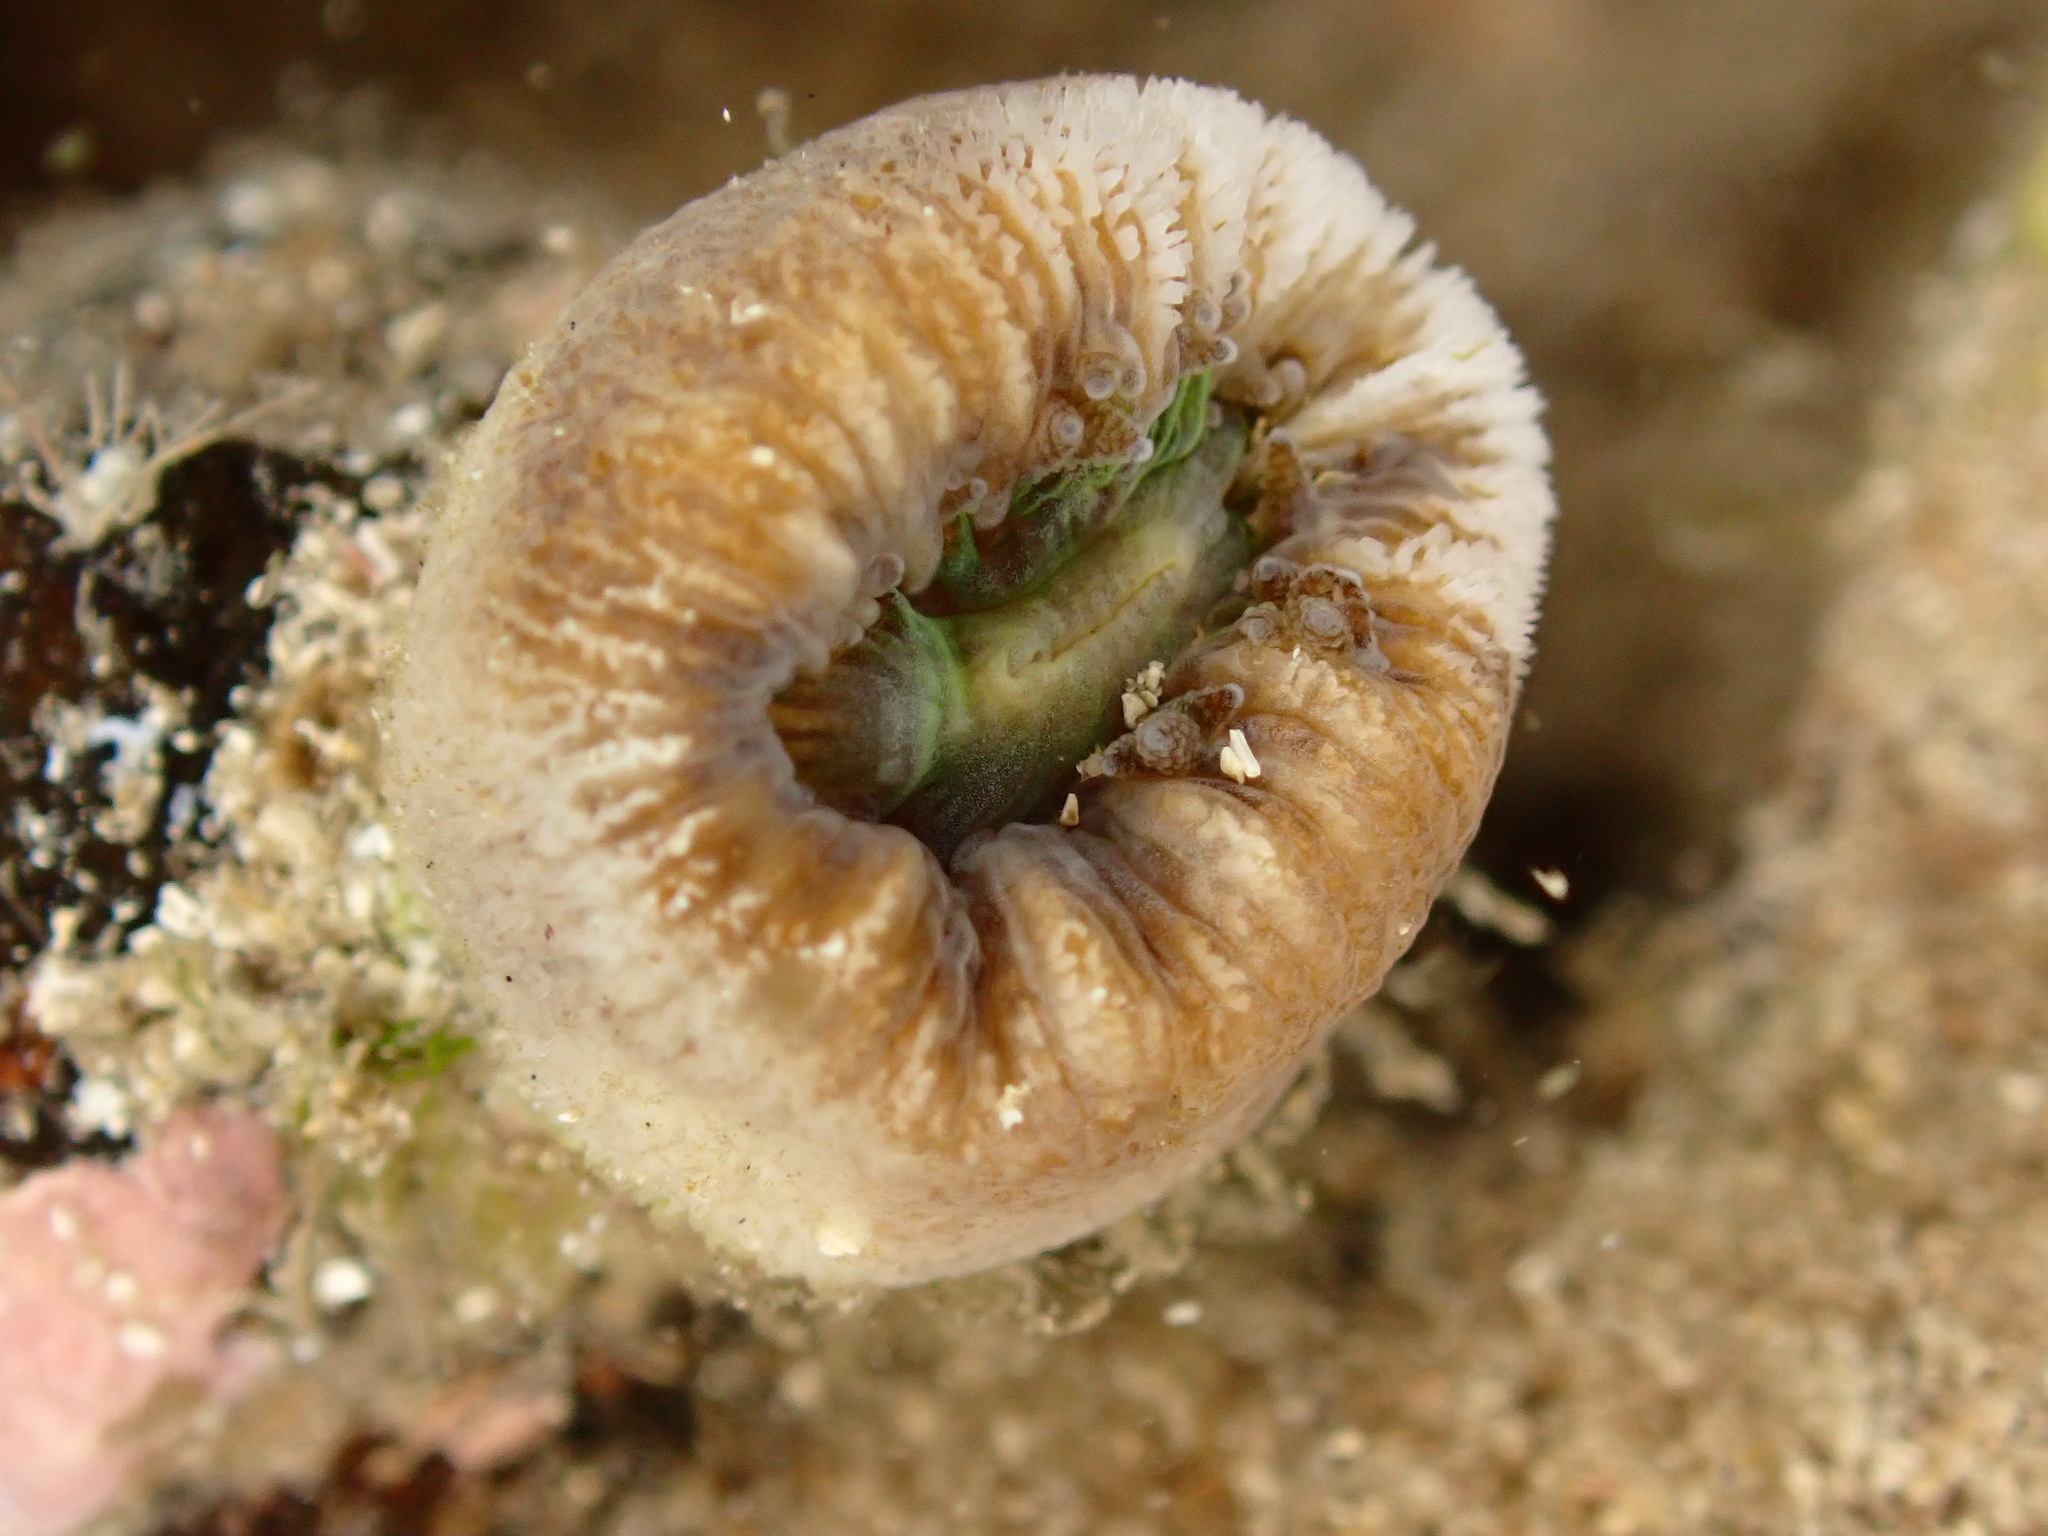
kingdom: Animalia
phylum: Cnidaria
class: Anthozoa
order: Scleractinia
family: Dendrophylliidae
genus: Balanophyllia
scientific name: Balanophyllia europaea
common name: Scarlet coral
